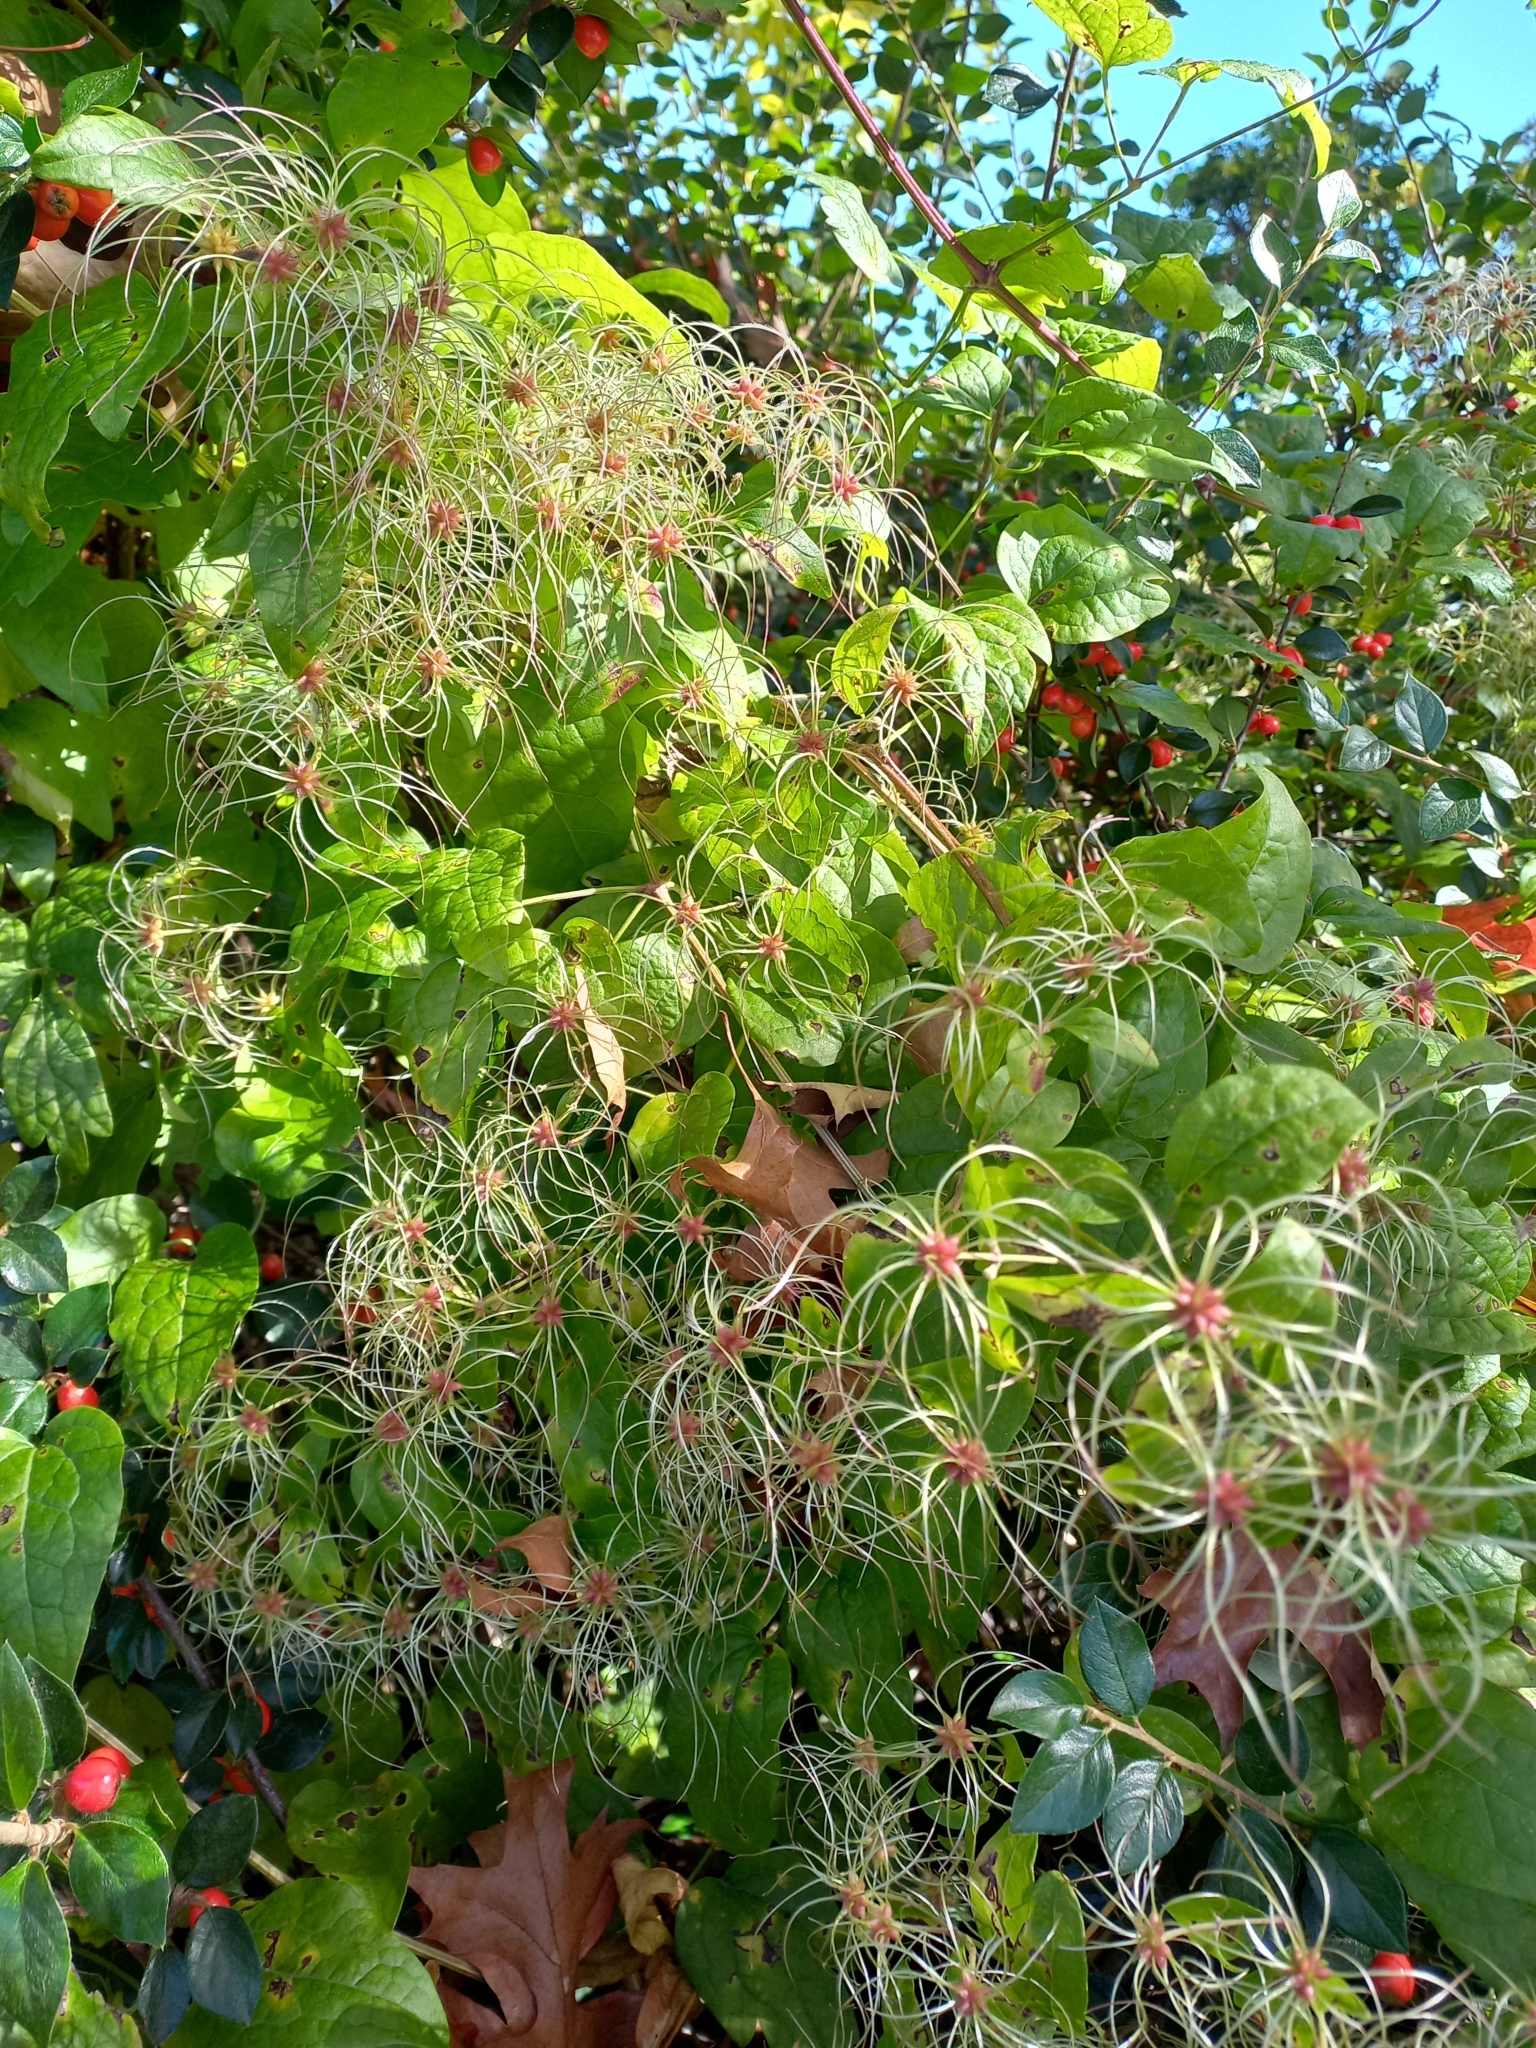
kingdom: Plantae
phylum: Tracheophyta
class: Magnoliopsida
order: Ranunculales
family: Ranunculaceae
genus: Clematis
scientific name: Clematis vitalba
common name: Evergreen clematis
